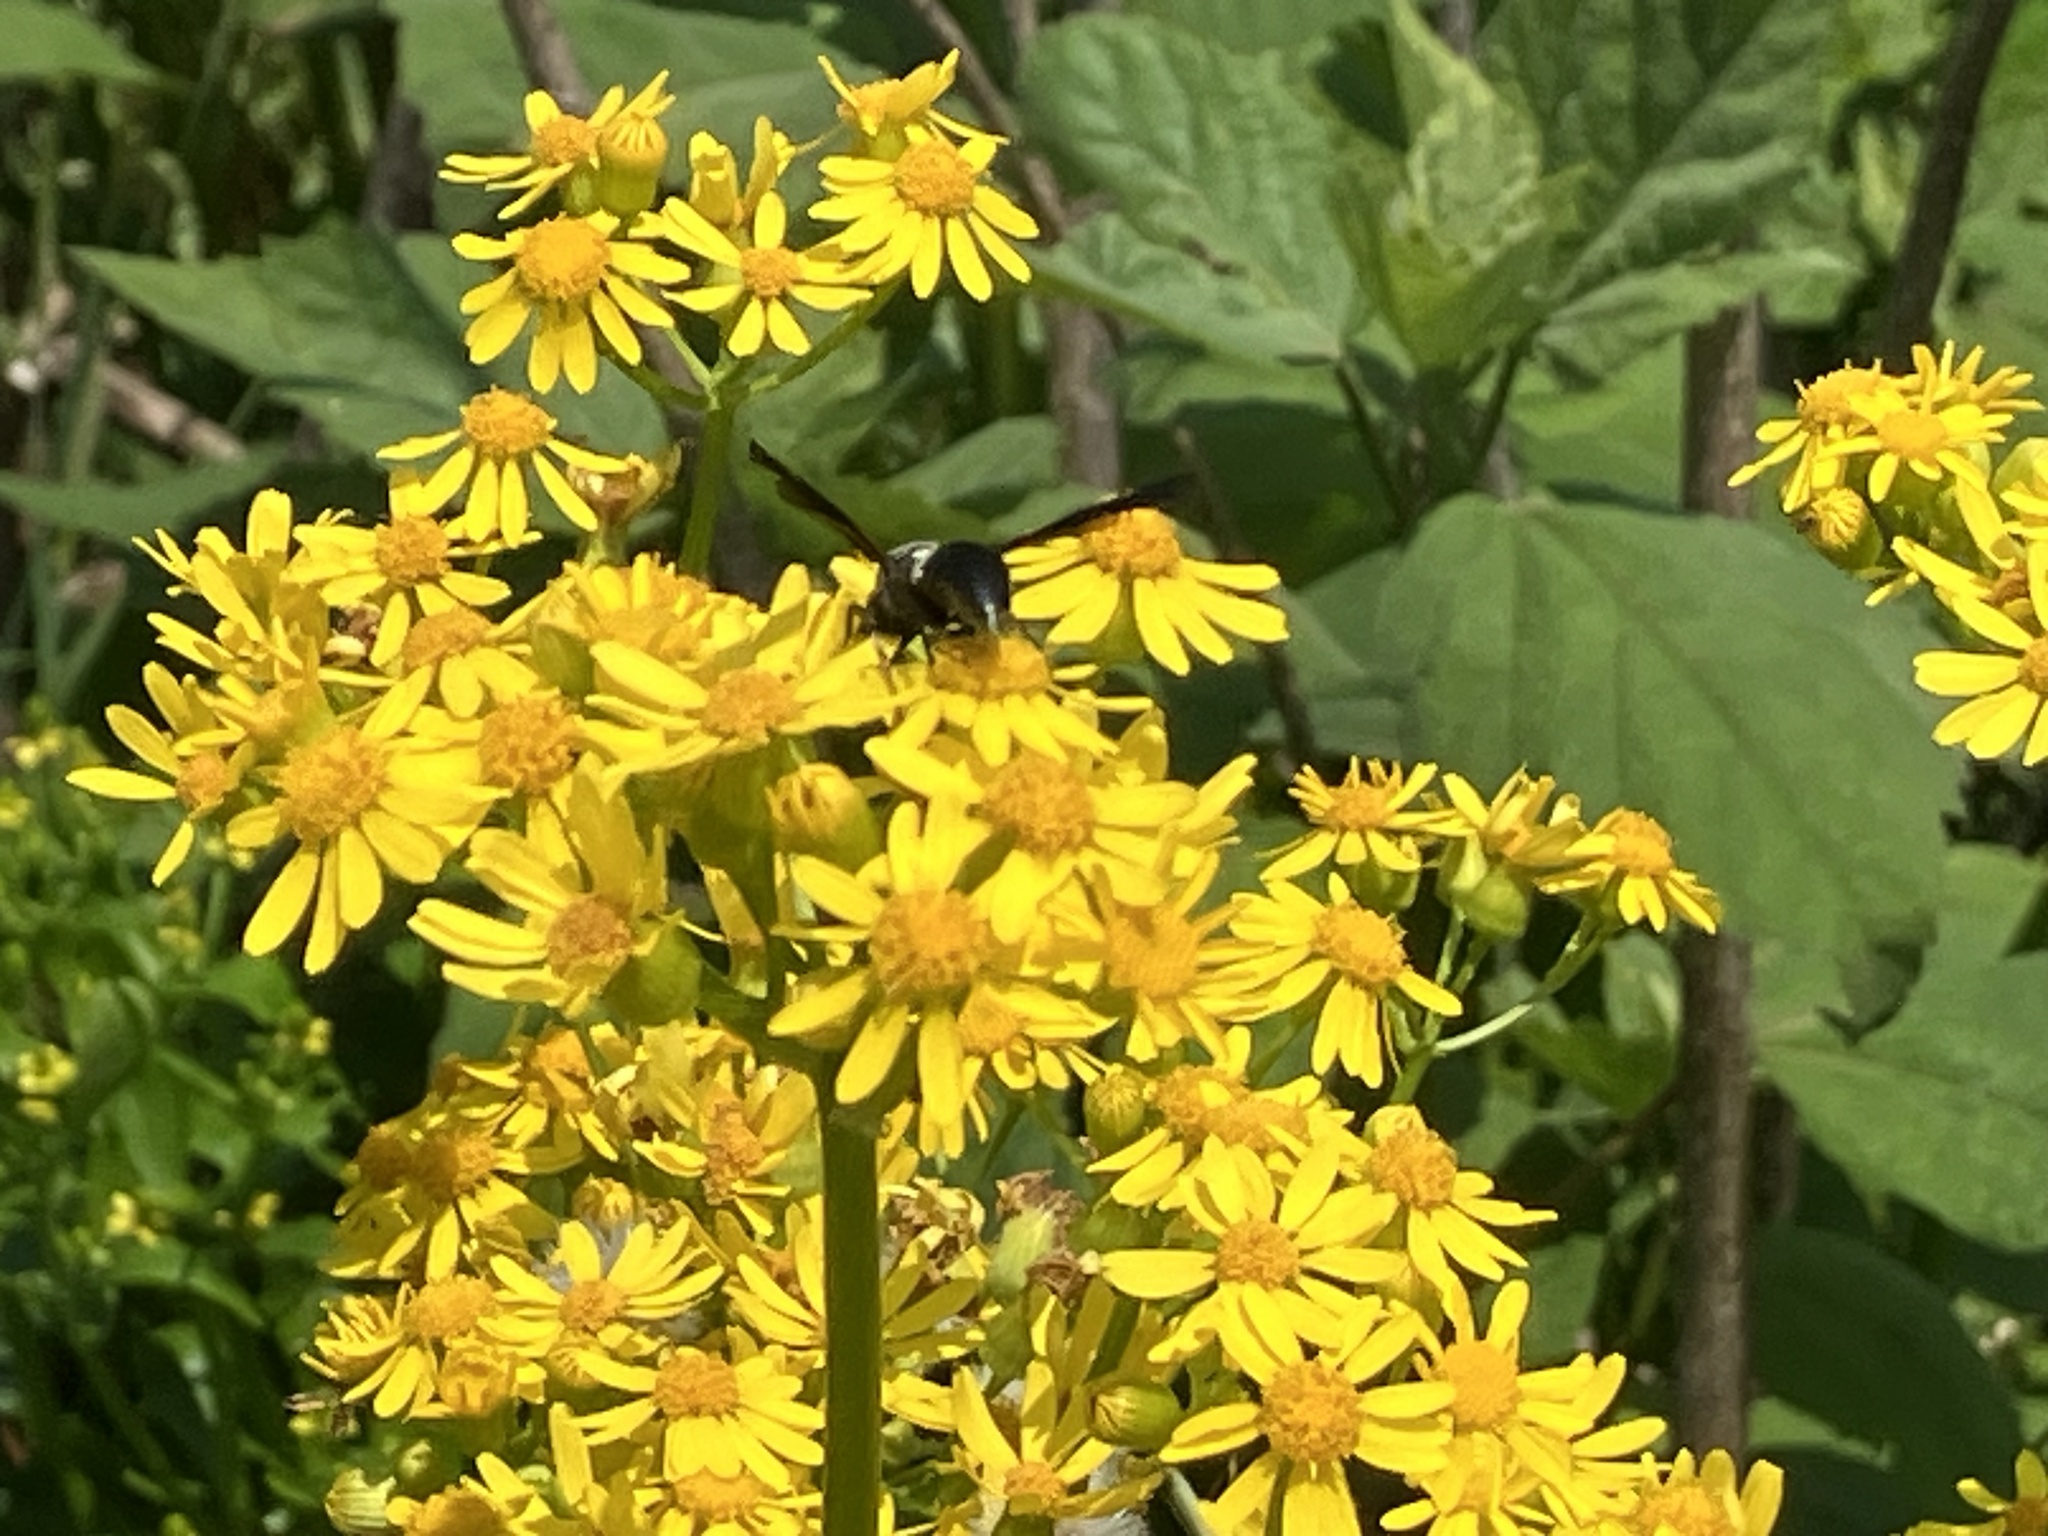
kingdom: Animalia
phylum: Arthropoda
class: Insecta
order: Hymenoptera
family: Eumenidae
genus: Monobia
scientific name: Monobia quadridens
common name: Four-toothed mason wasp
